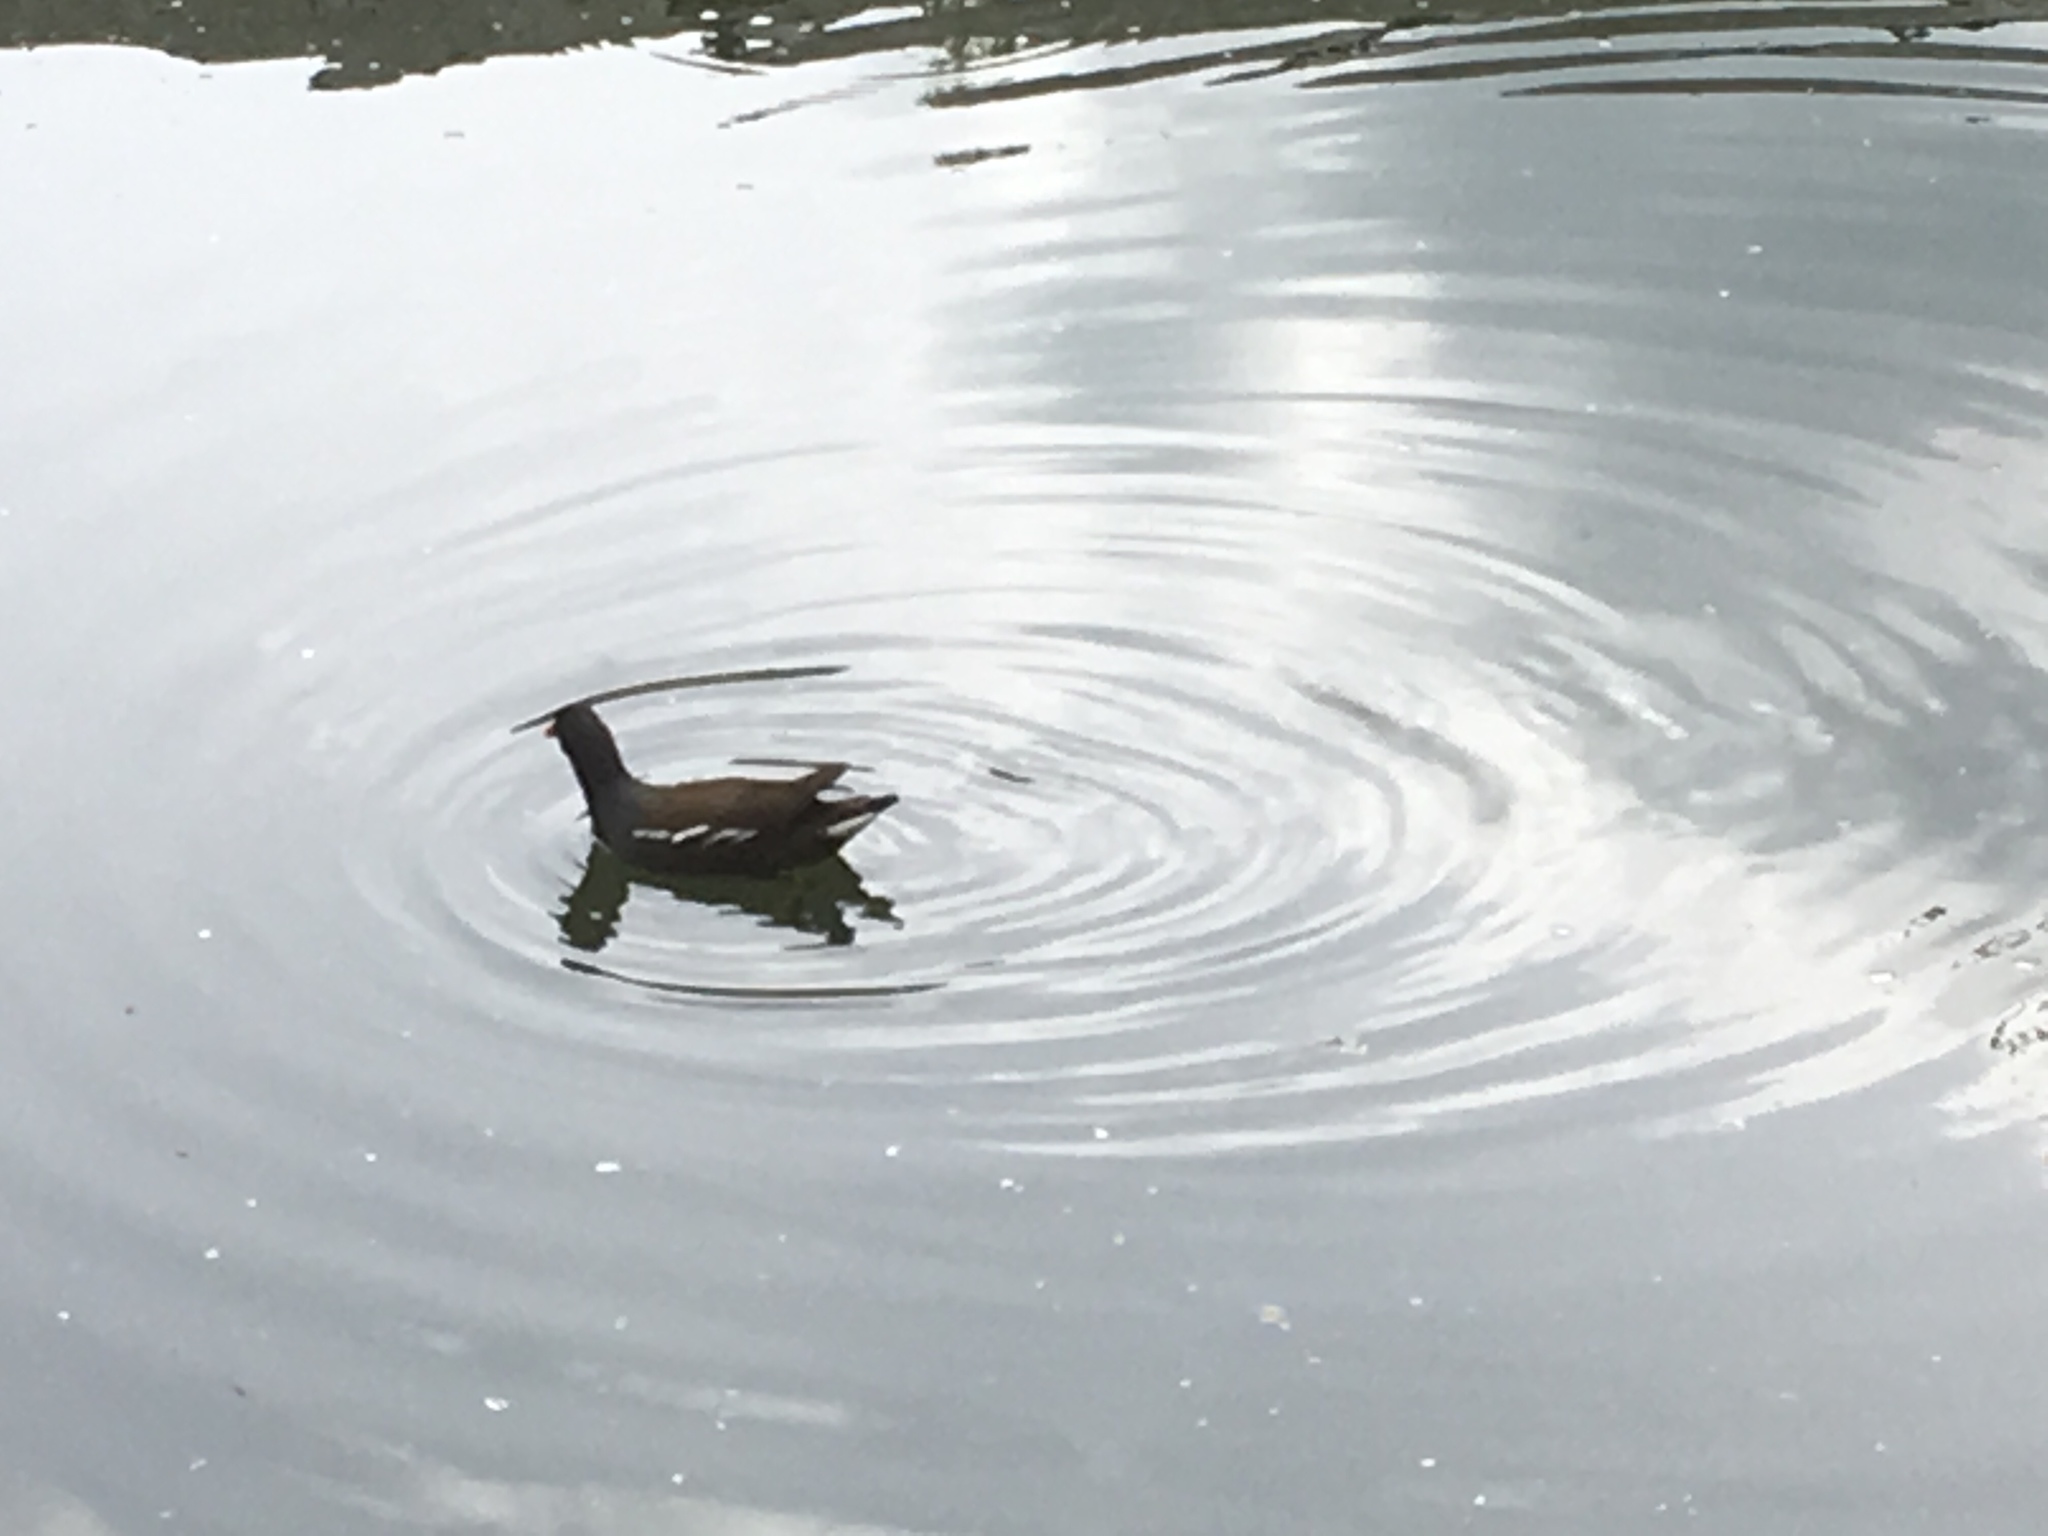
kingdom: Animalia
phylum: Chordata
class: Aves
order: Gruiformes
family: Rallidae
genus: Gallinula
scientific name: Gallinula chloropus
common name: Common moorhen
